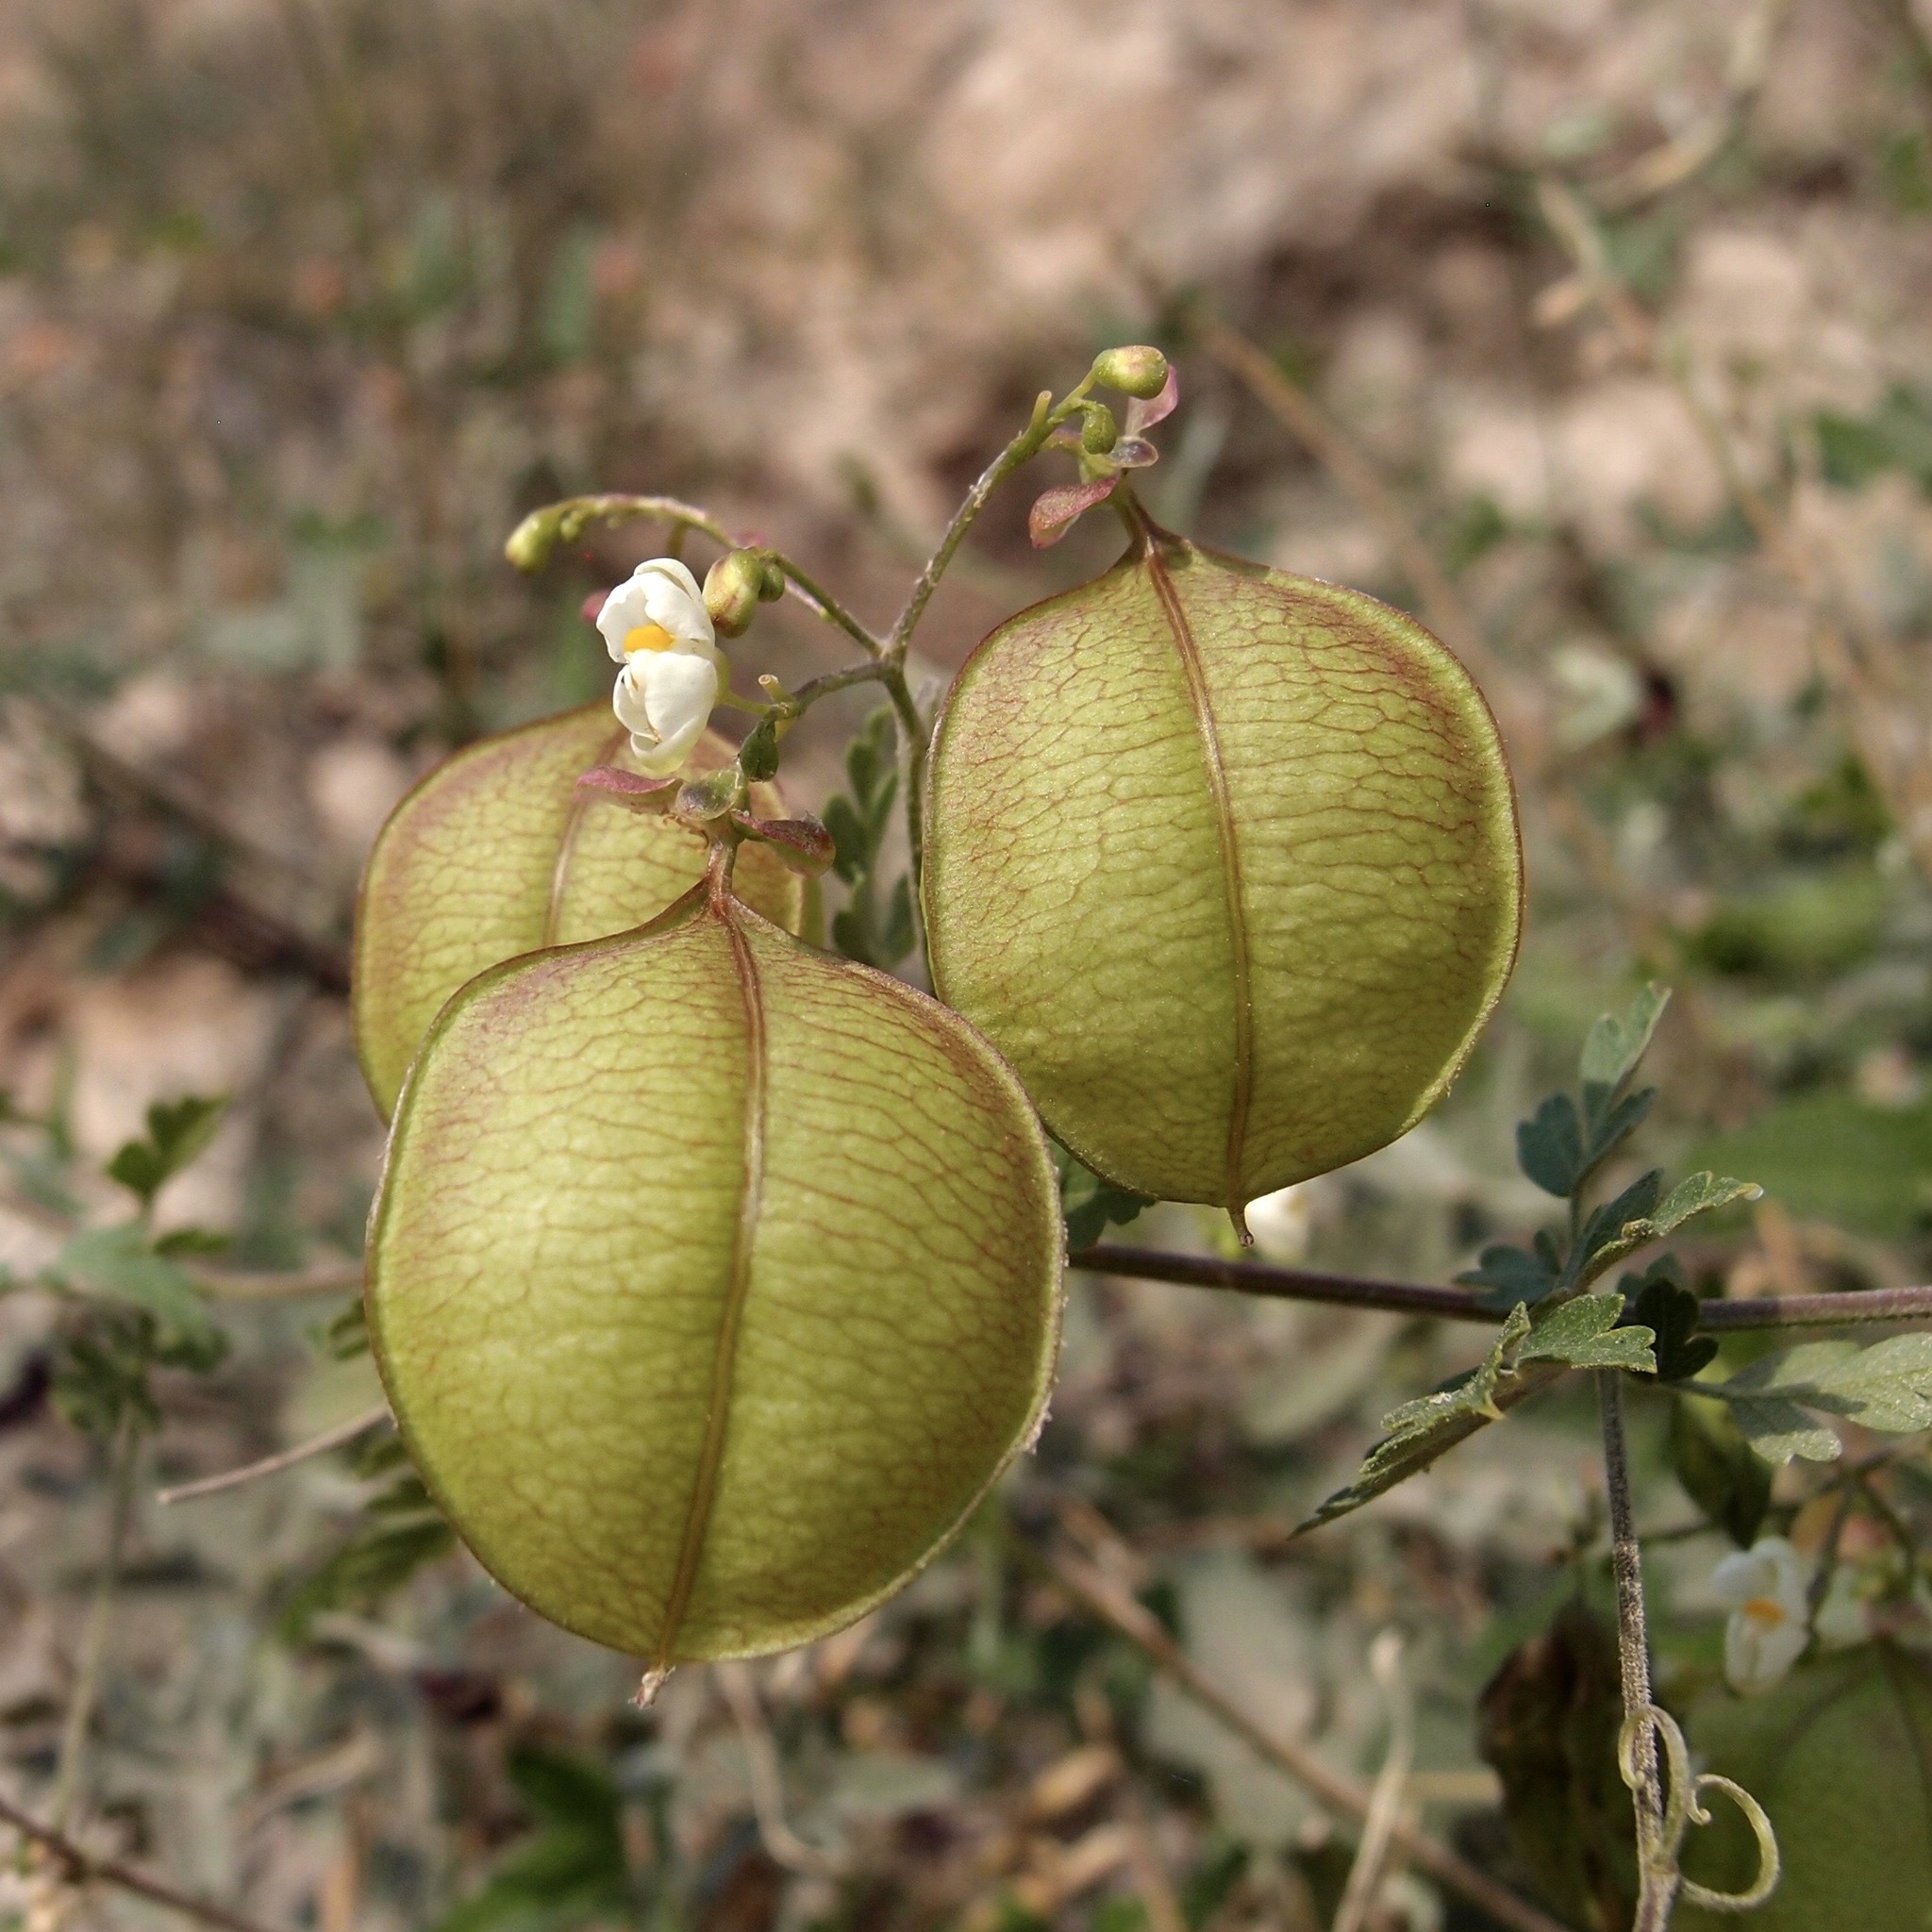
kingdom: Plantae
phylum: Tracheophyta
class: Magnoliopsida
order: Sapindales
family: Sapindaceae
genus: Cardiospermum
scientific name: Cardiospermum corindum
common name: Faux persil
